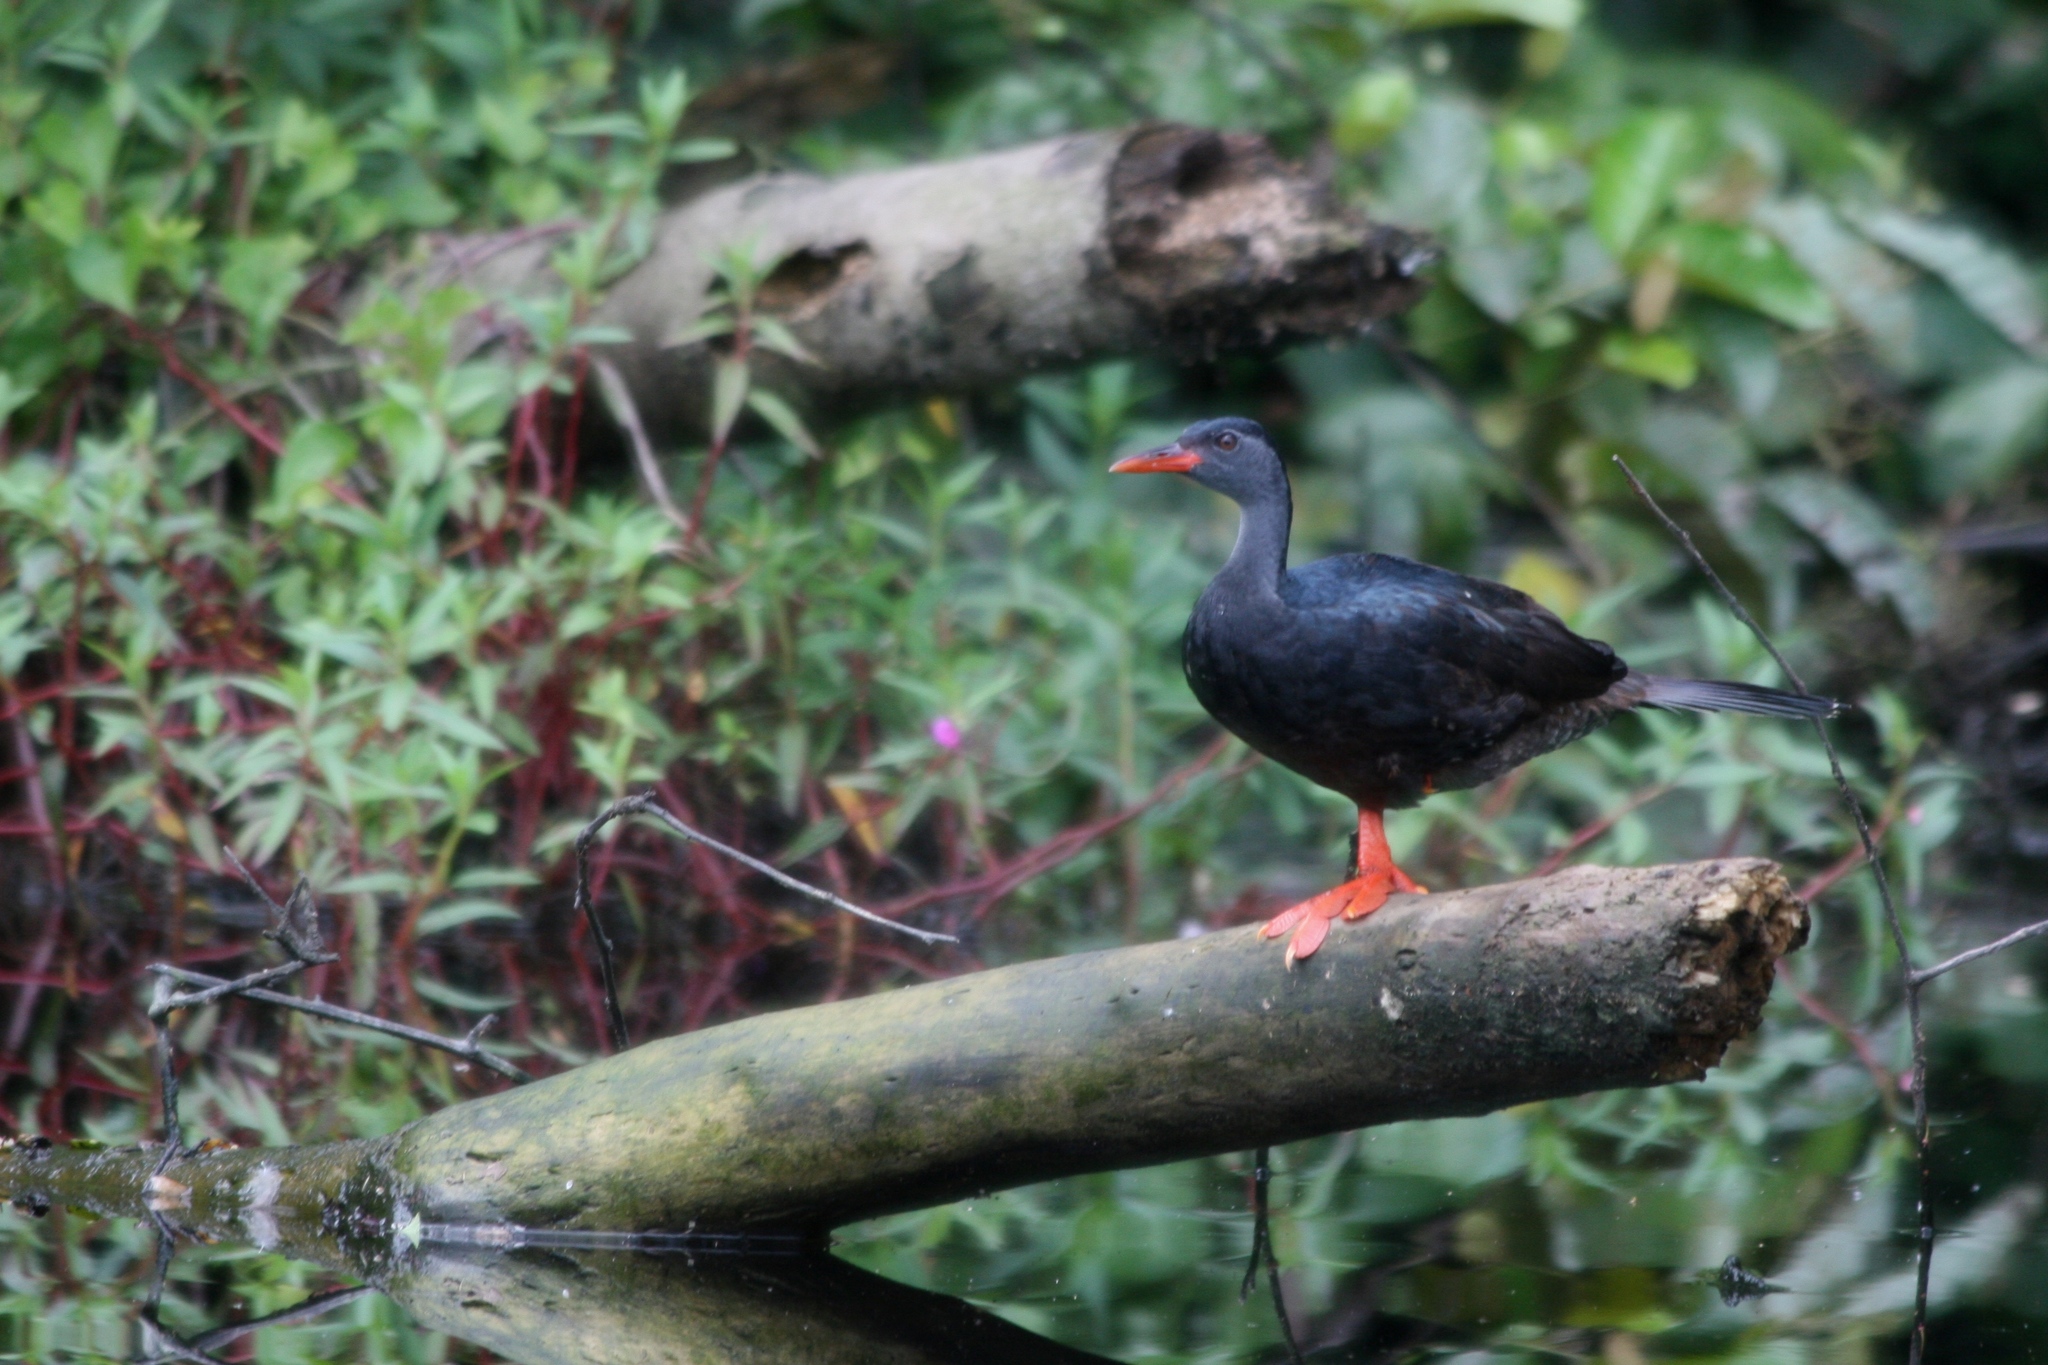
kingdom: Animalia
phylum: Chordata
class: Aves
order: Gruiformes
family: Heliornithidae
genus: Podica
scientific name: Podica senegalensis
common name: African finfoot
